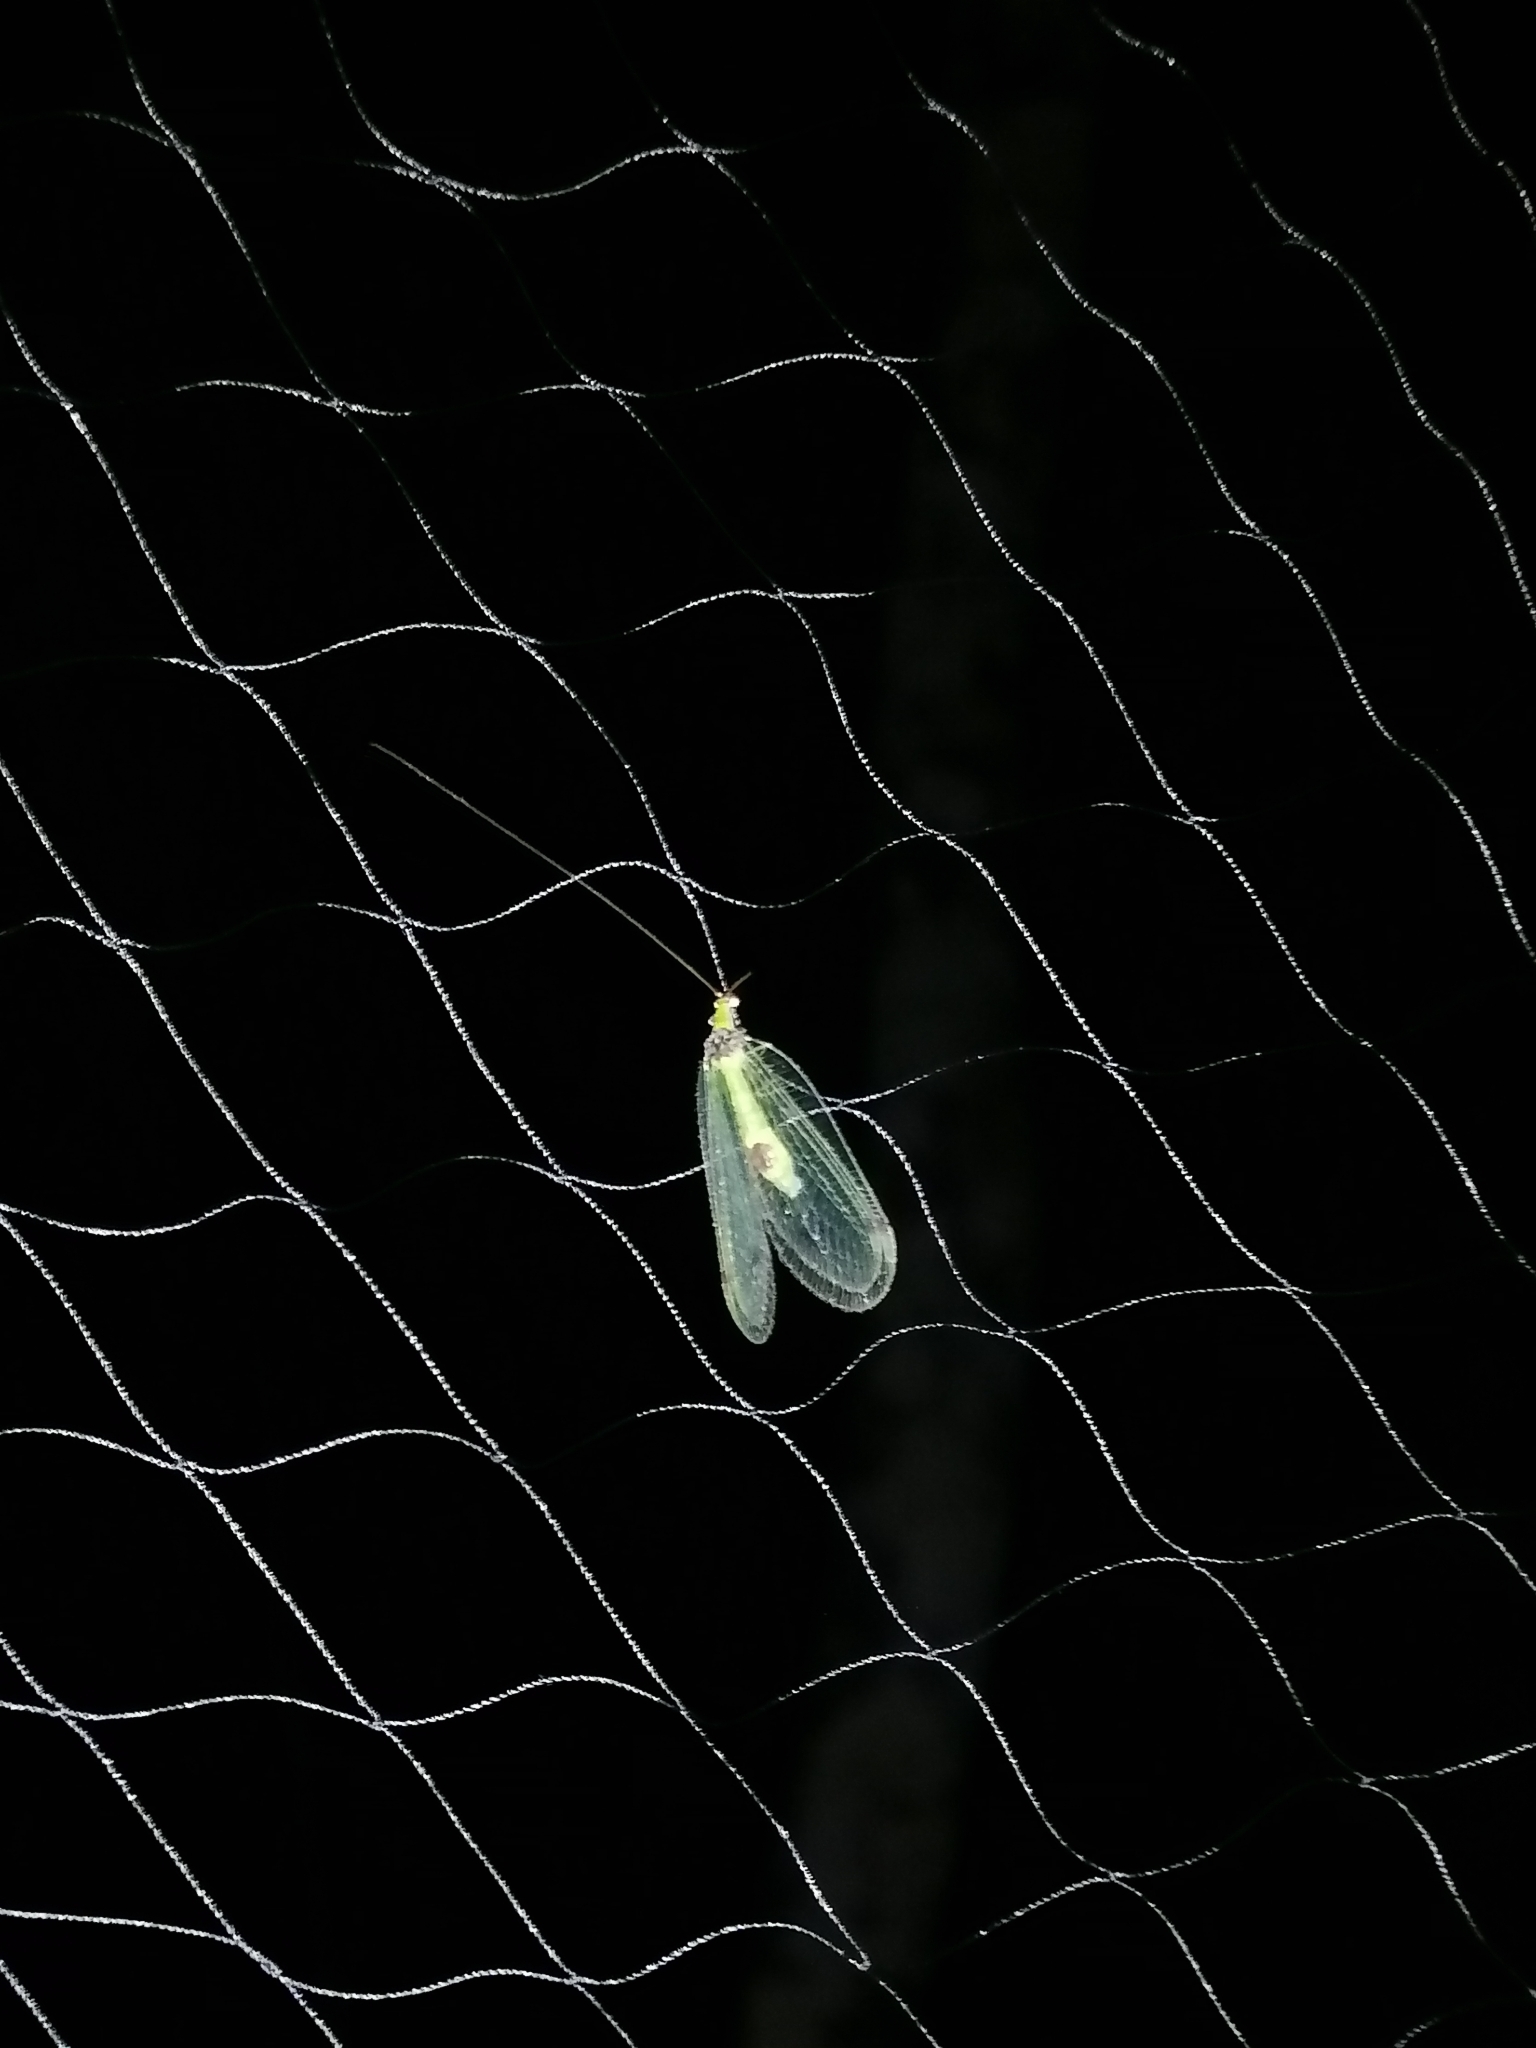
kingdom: Animalia
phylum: Arthropoda
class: Insecta
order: Neuroptera
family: Chrysopidae
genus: Gonzaga
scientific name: Gonzaga torquatus
